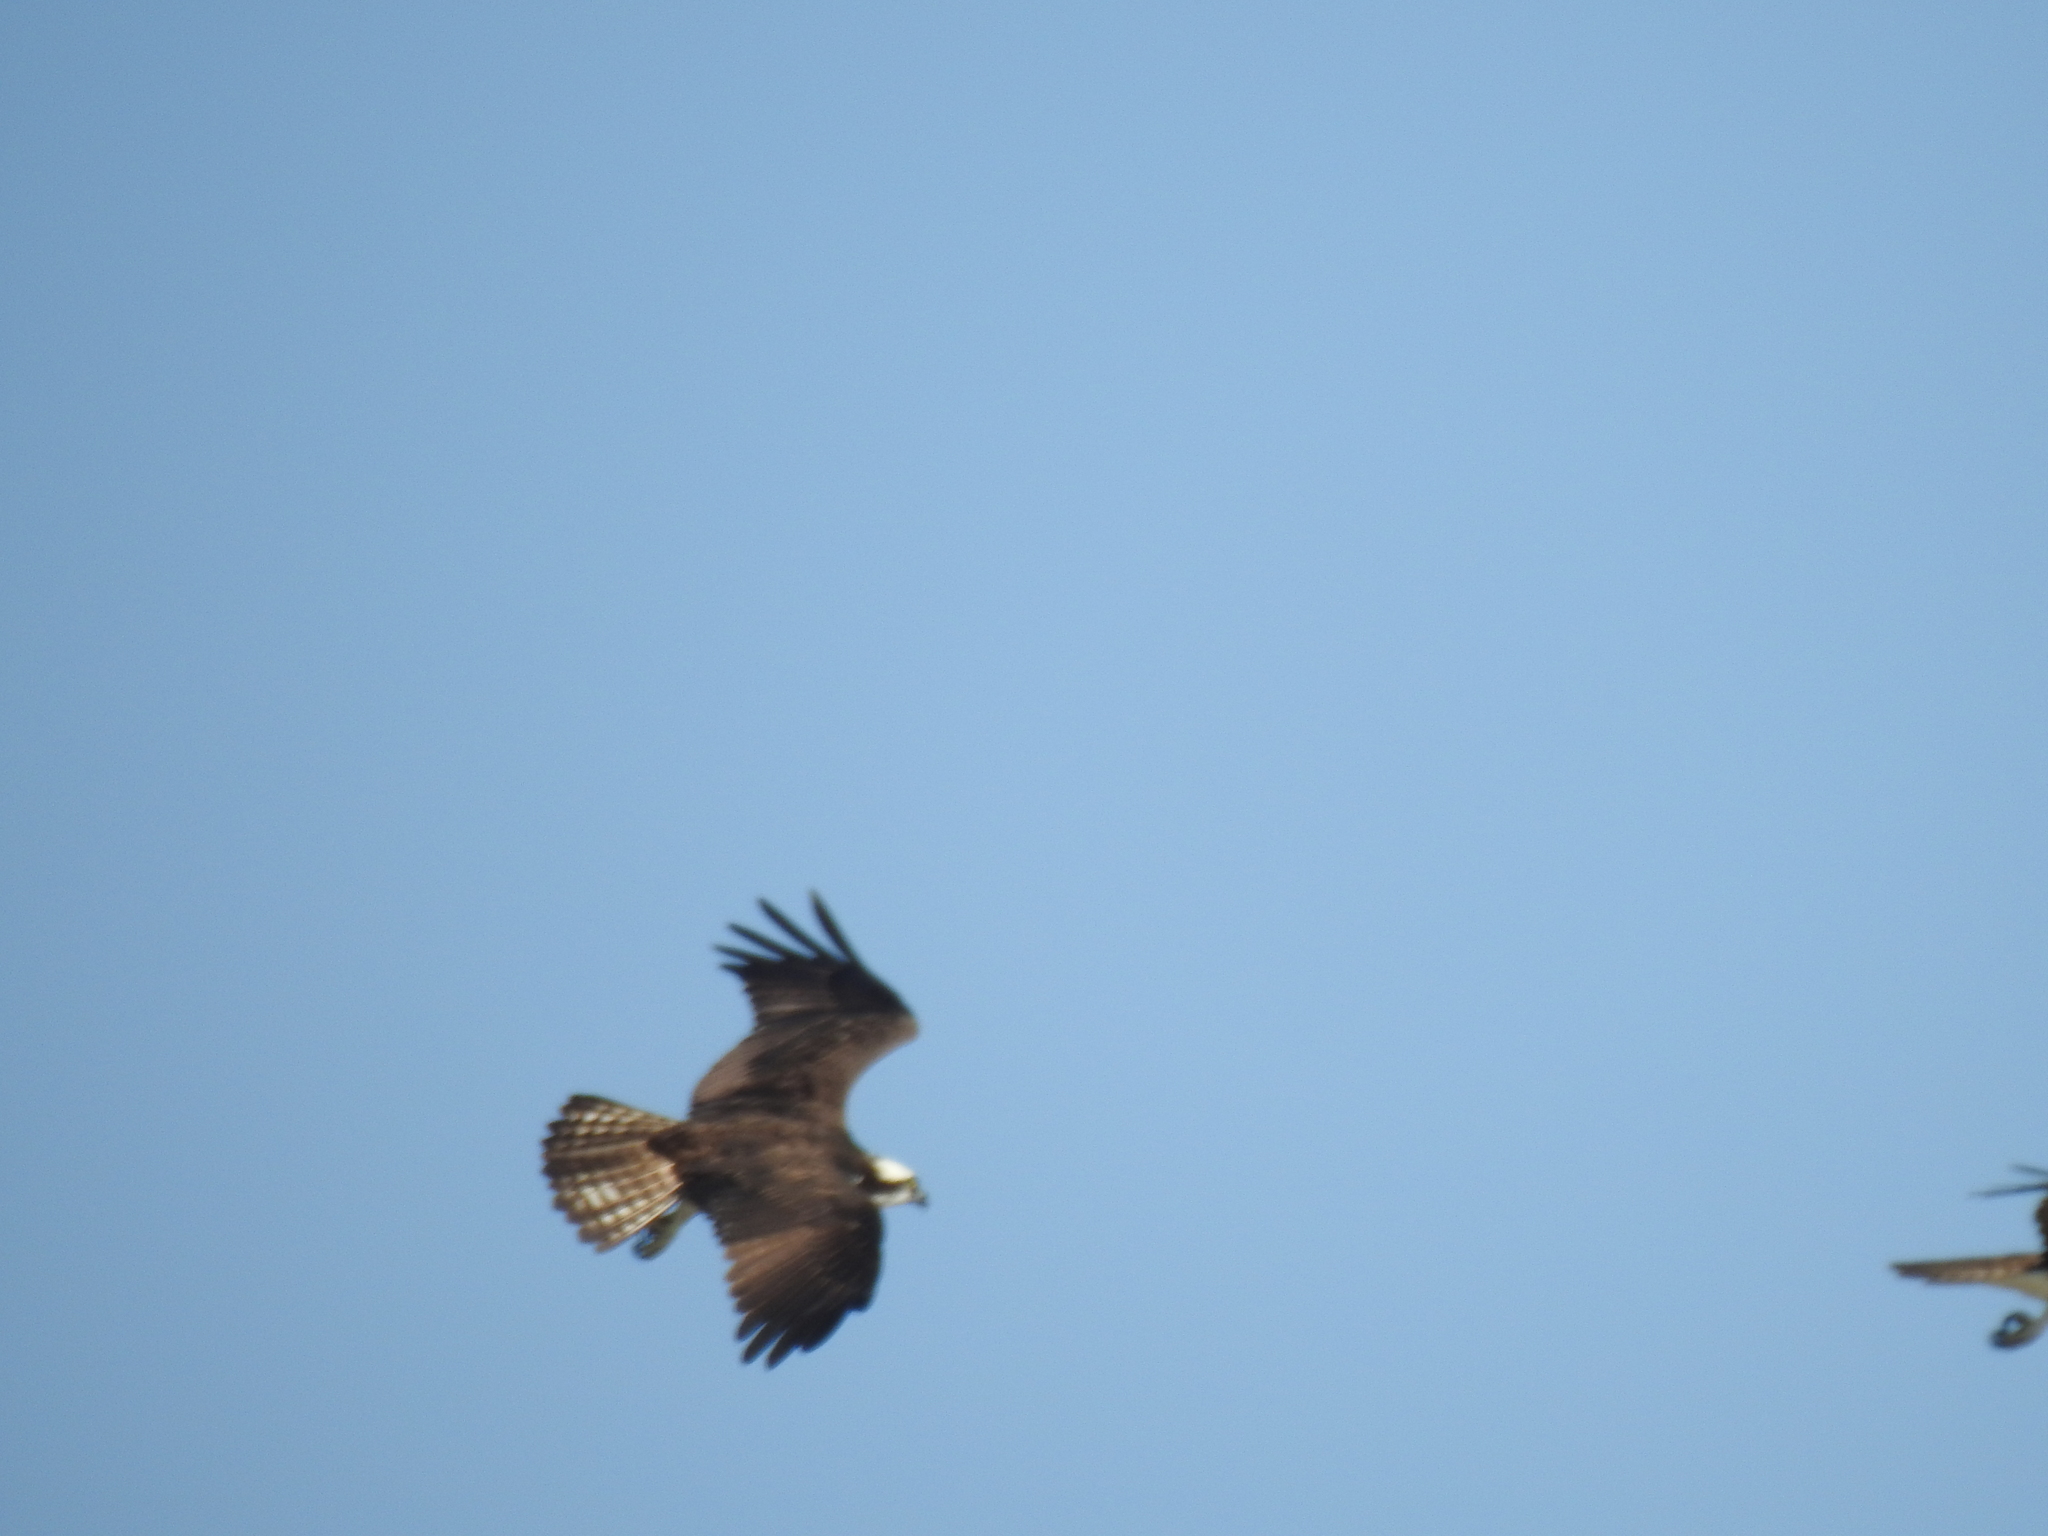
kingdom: Animalia
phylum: Chordata
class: Aves
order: Accipitriformes
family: Pandionidae
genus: Pandion
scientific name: Pandion haliaetus
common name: Osprey
